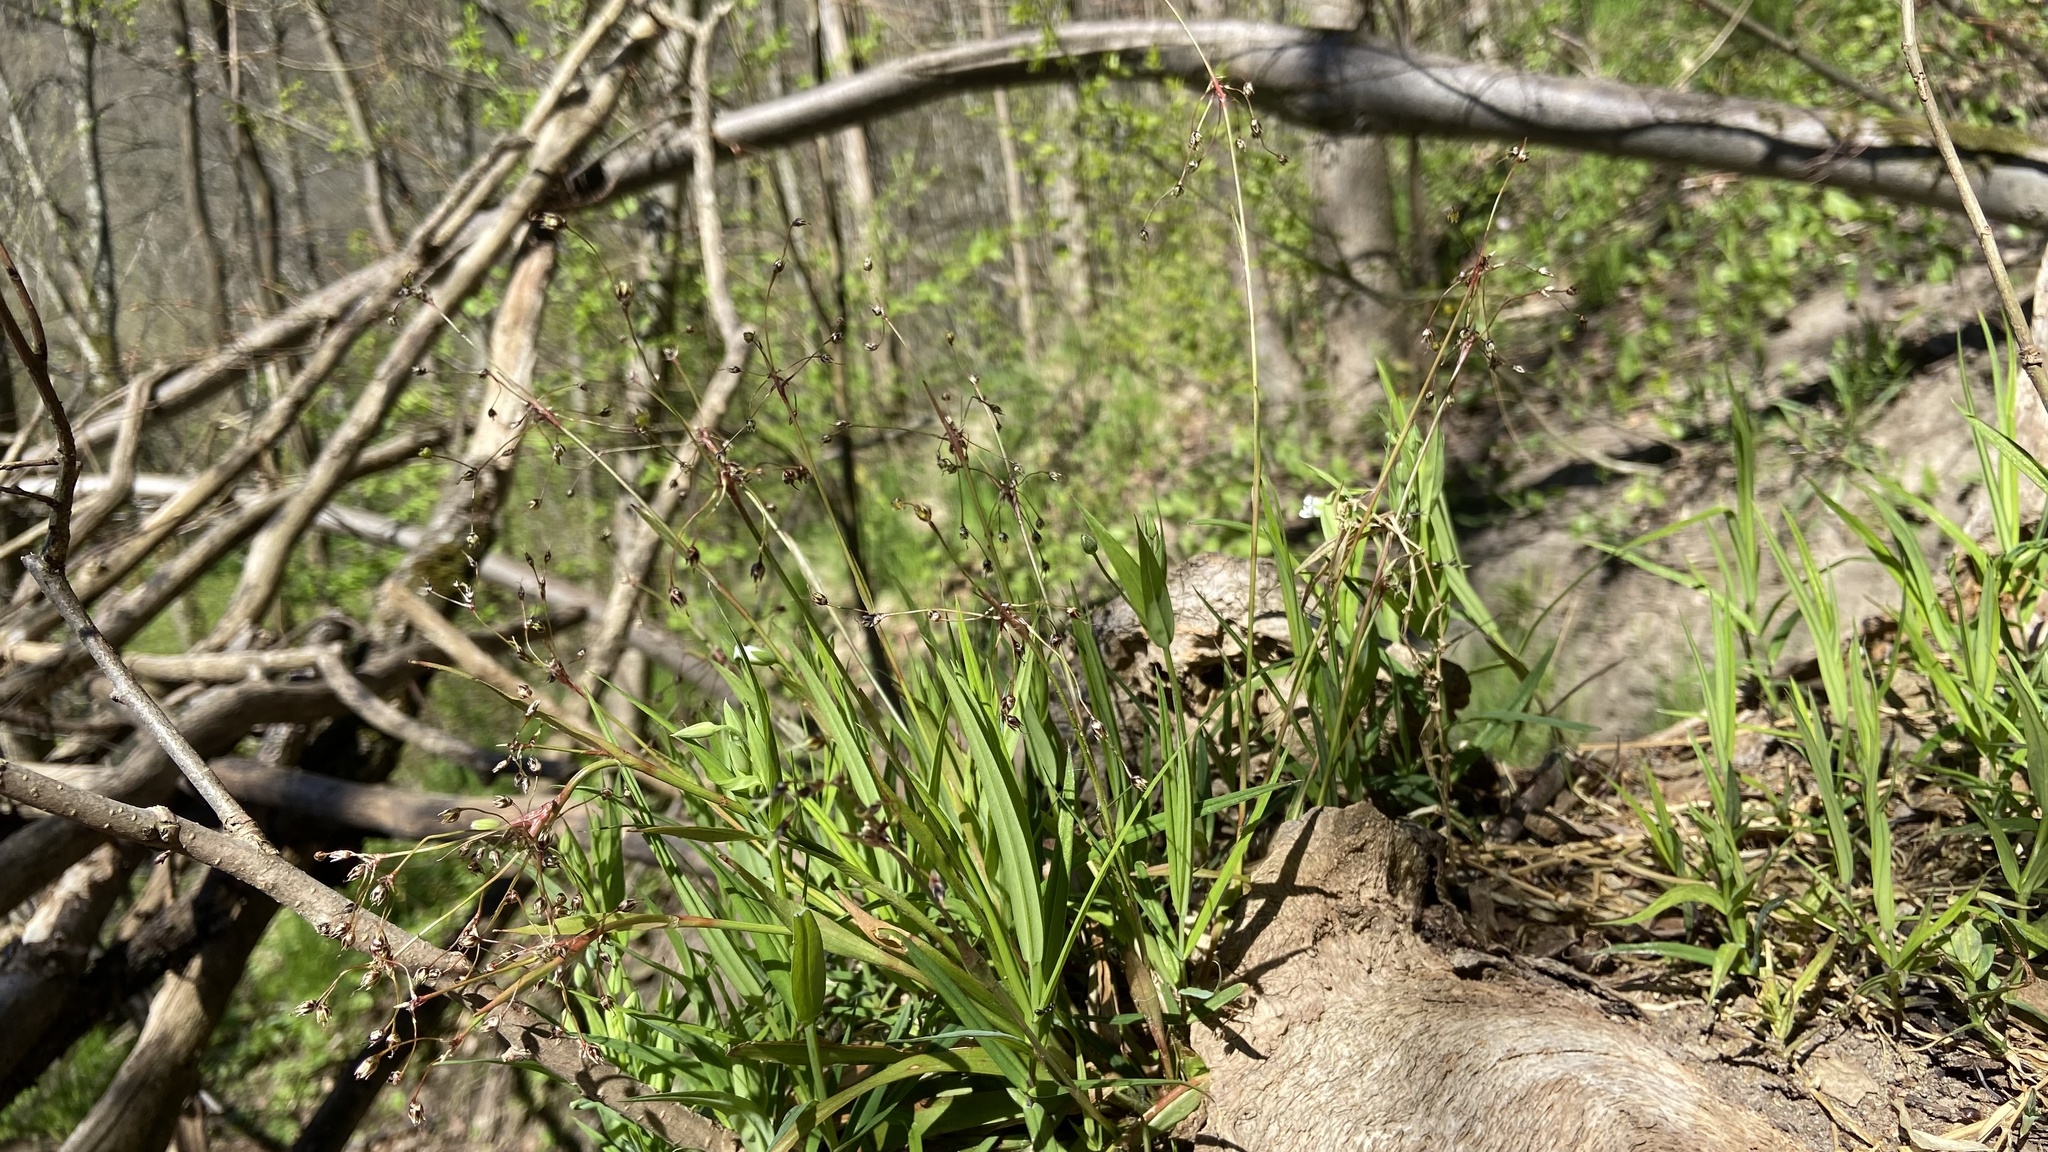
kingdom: Plantae
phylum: Tracheophyta
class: Liliopsida
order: Poales
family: Juncaceae
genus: Luzula
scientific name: Luzula pilosa
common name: Hairy wood-rush
